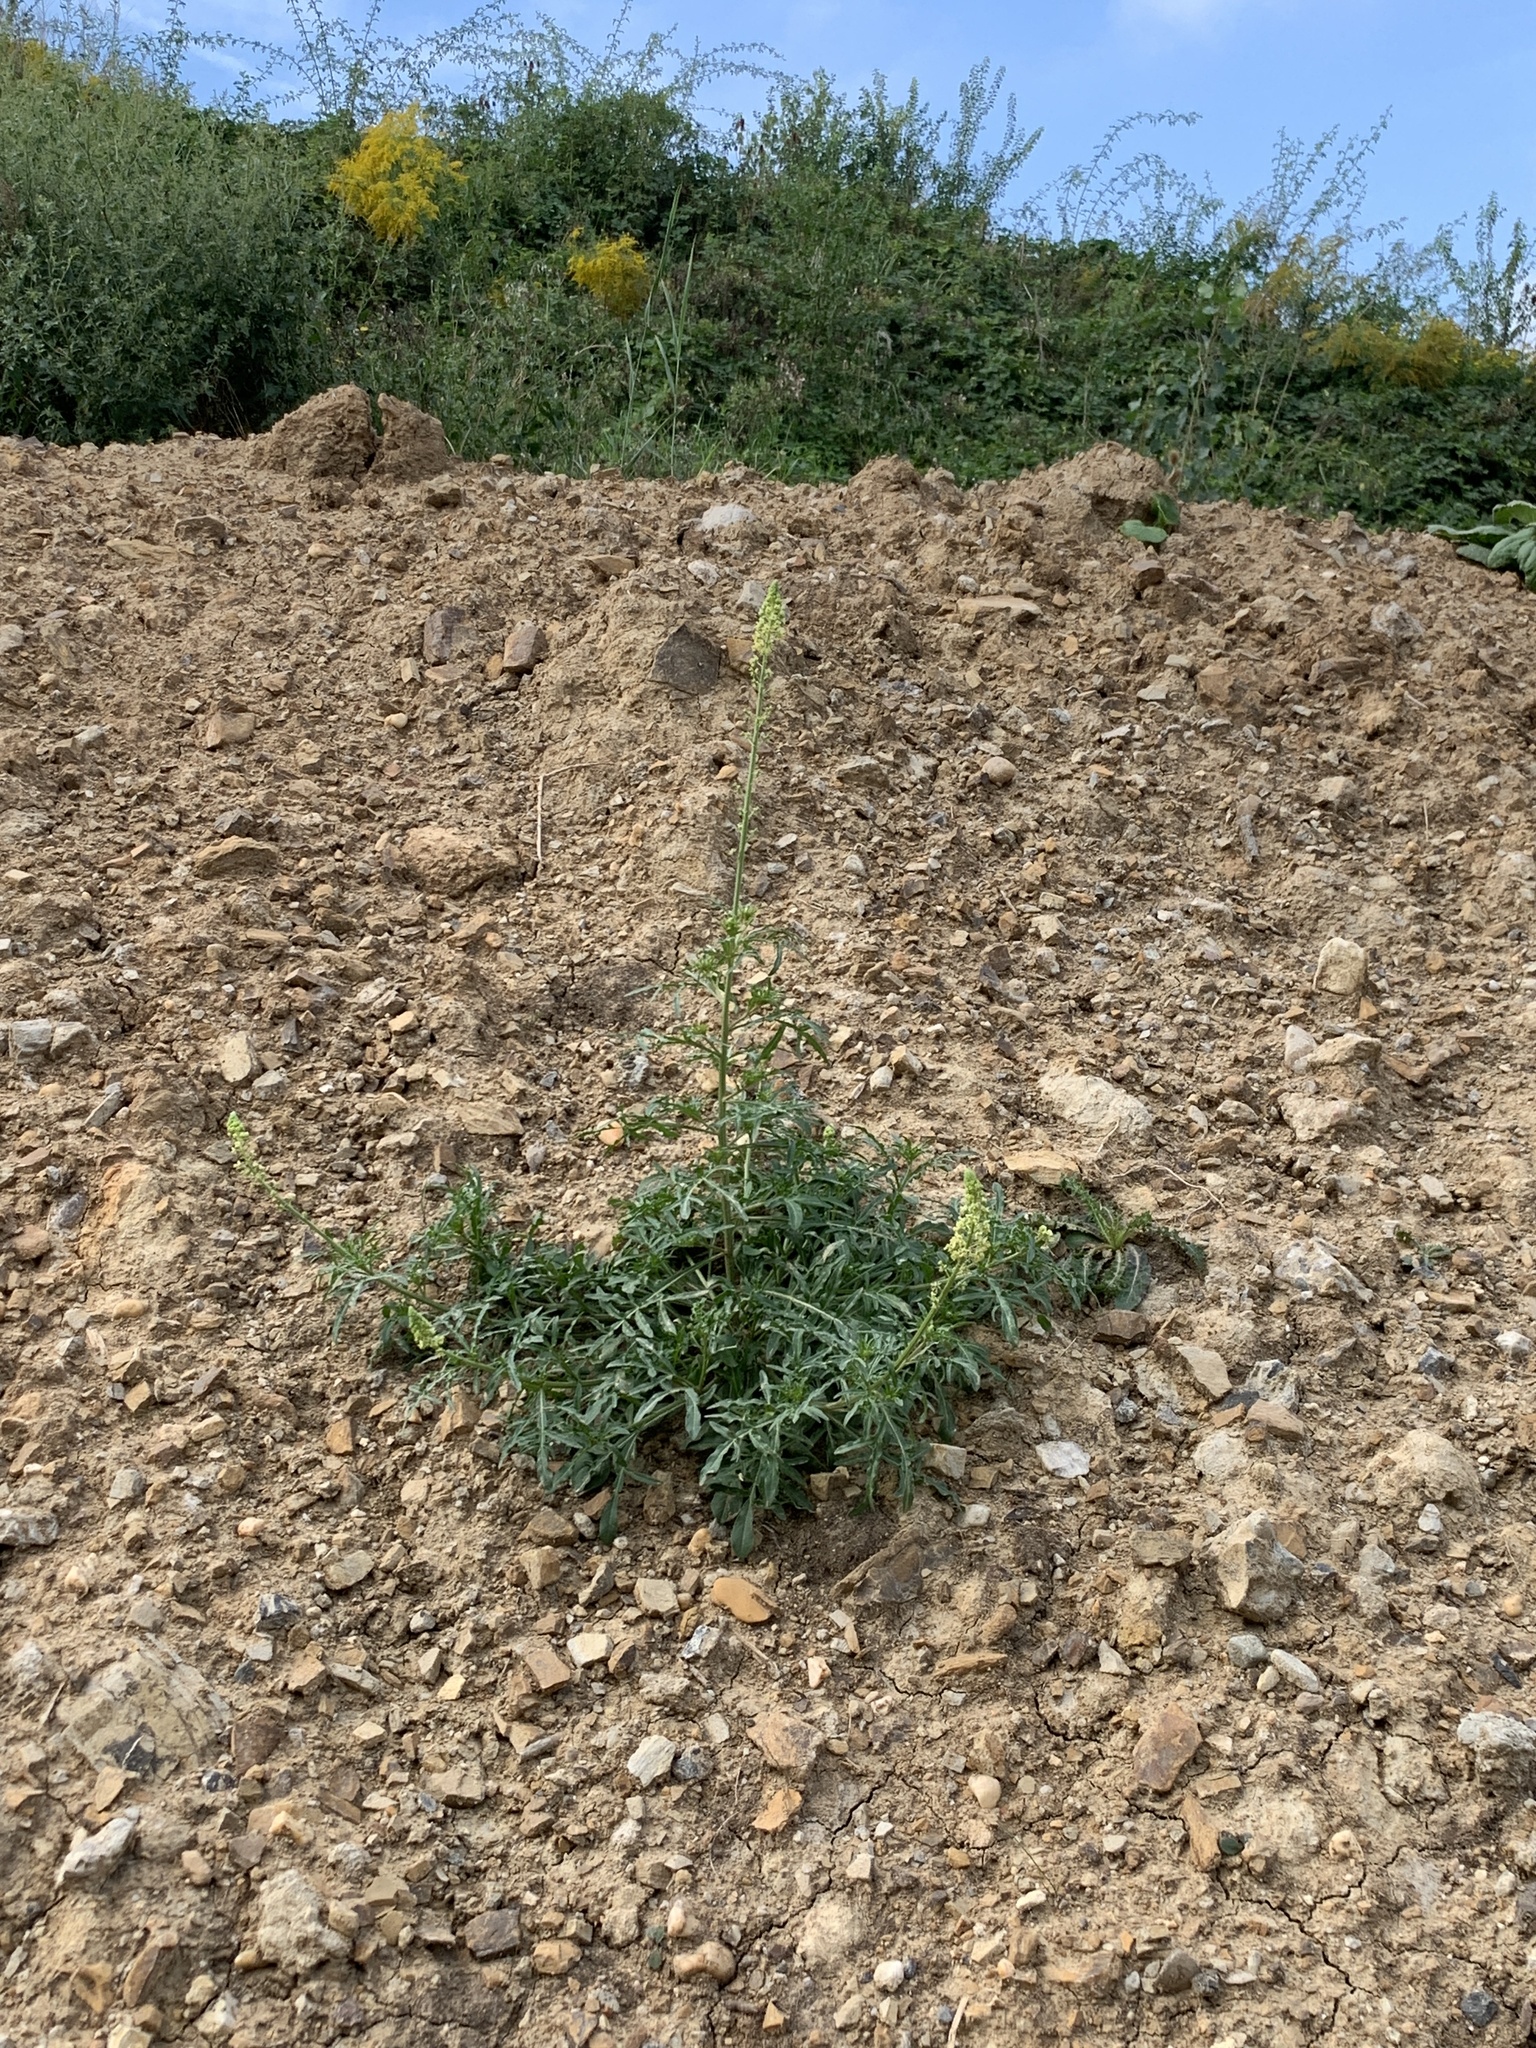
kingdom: Plantae
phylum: Tracheophyta
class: Magnoliopsida
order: Brassicales
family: Resedaceae
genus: Reseda
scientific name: Reseda lutea
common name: Wild mignonette
